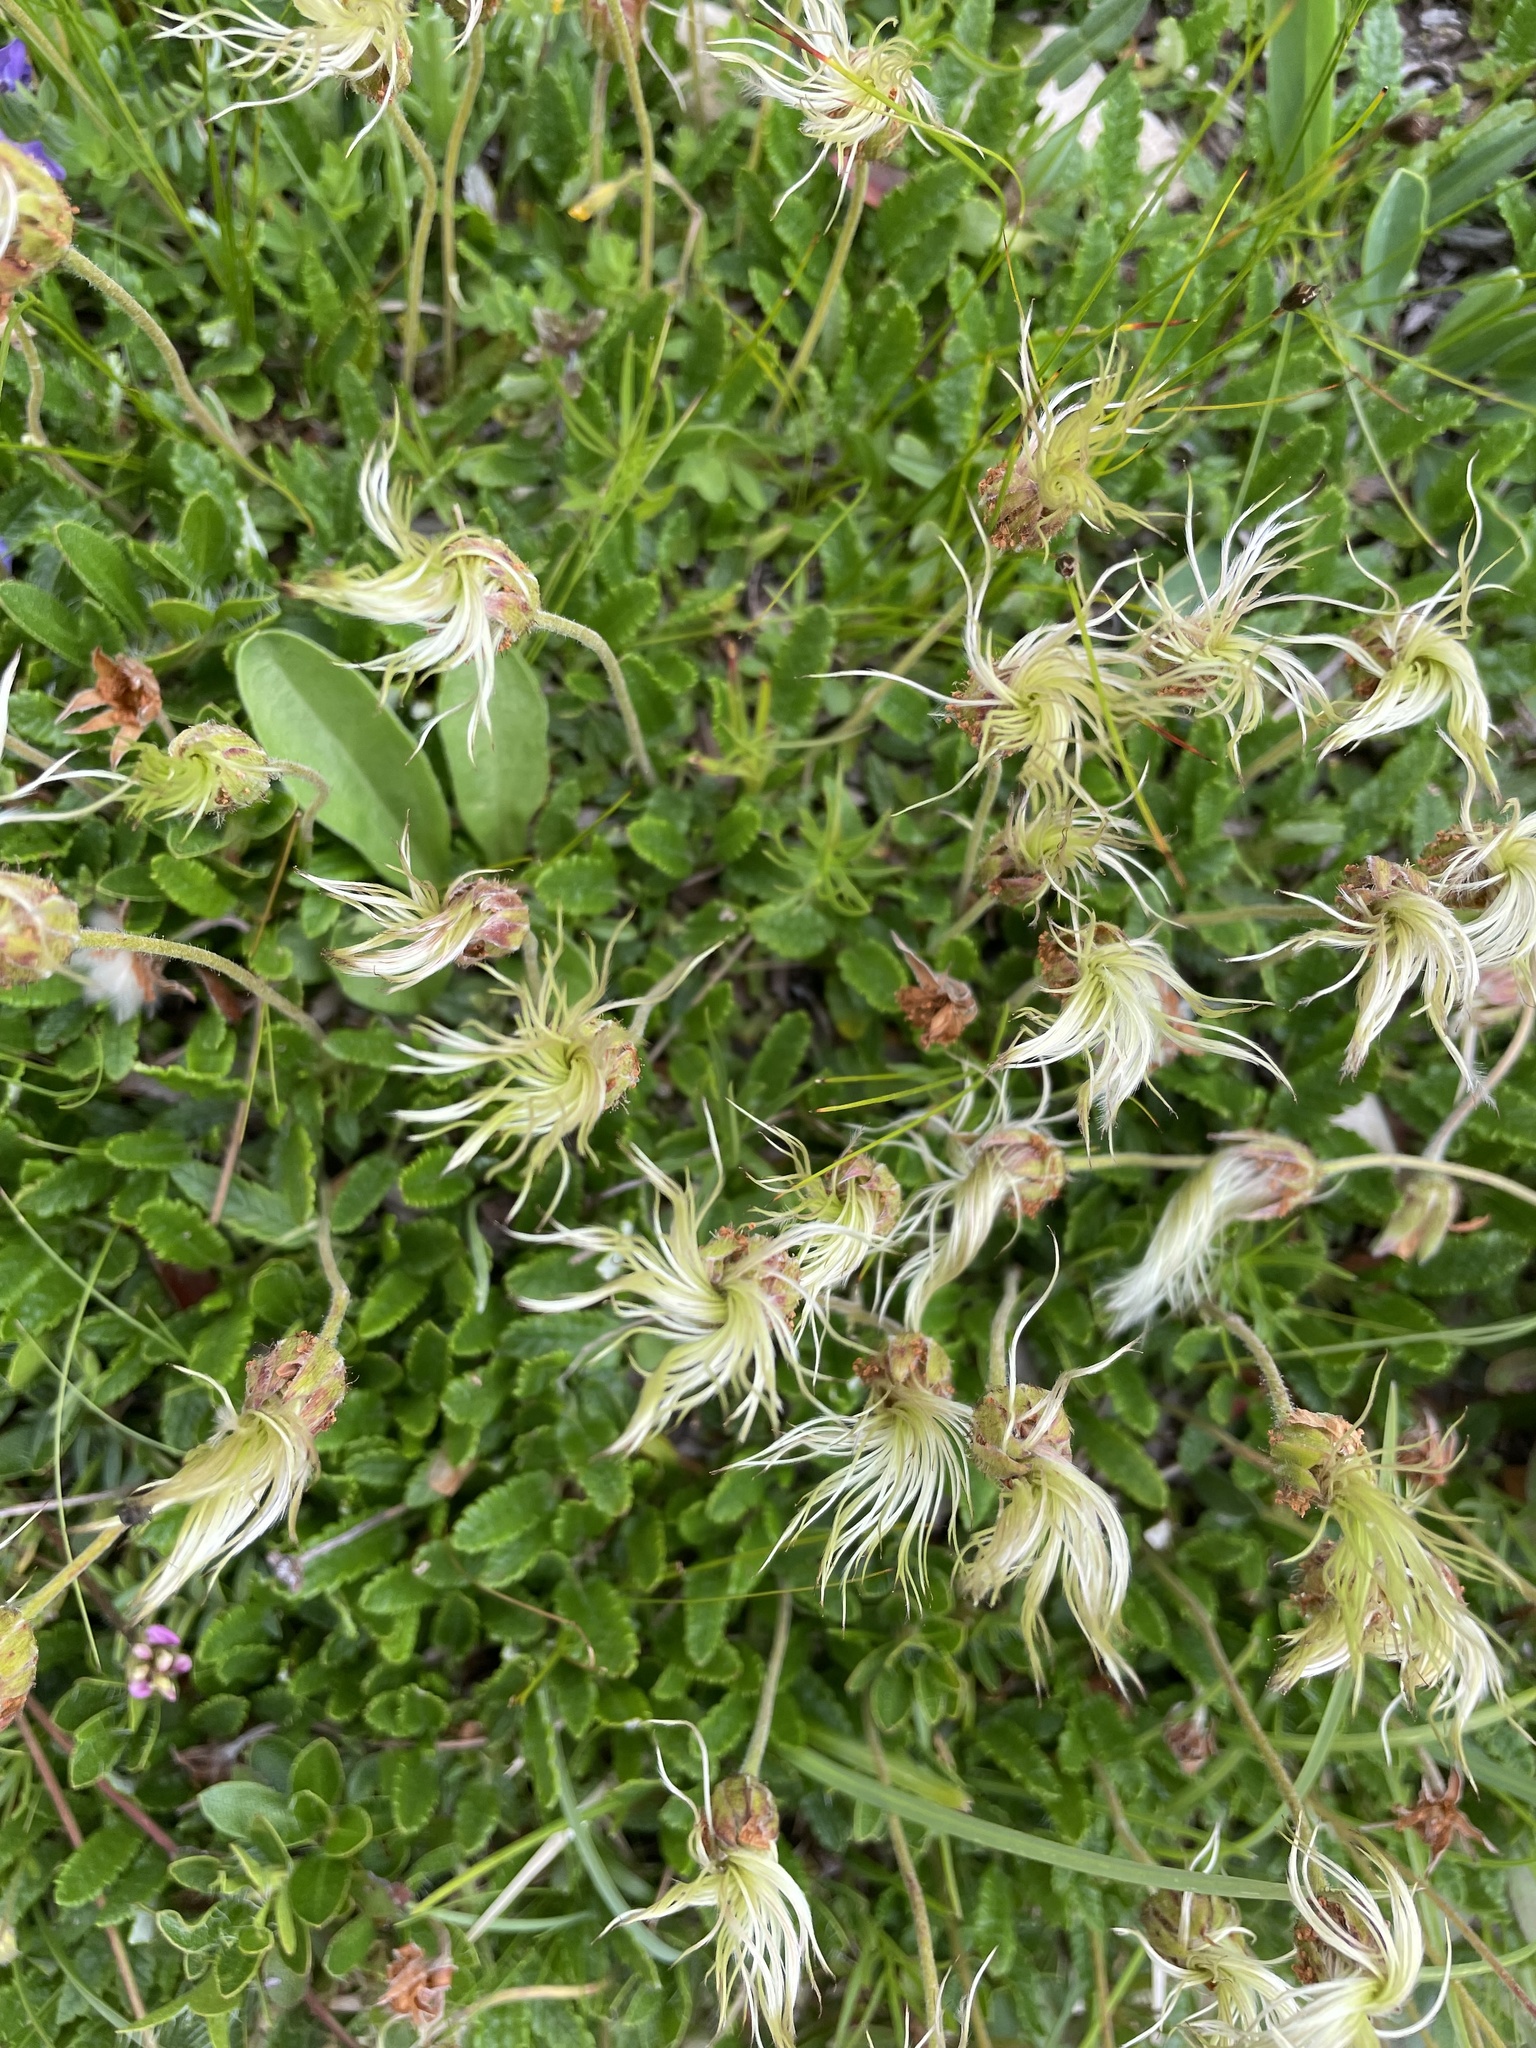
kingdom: Plantae
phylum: Tracheophyta
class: Magnoliopsida
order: Rosales
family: Rosaceae
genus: Dryas
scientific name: Dryas octopetala
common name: Eight-petal mountain-avens
